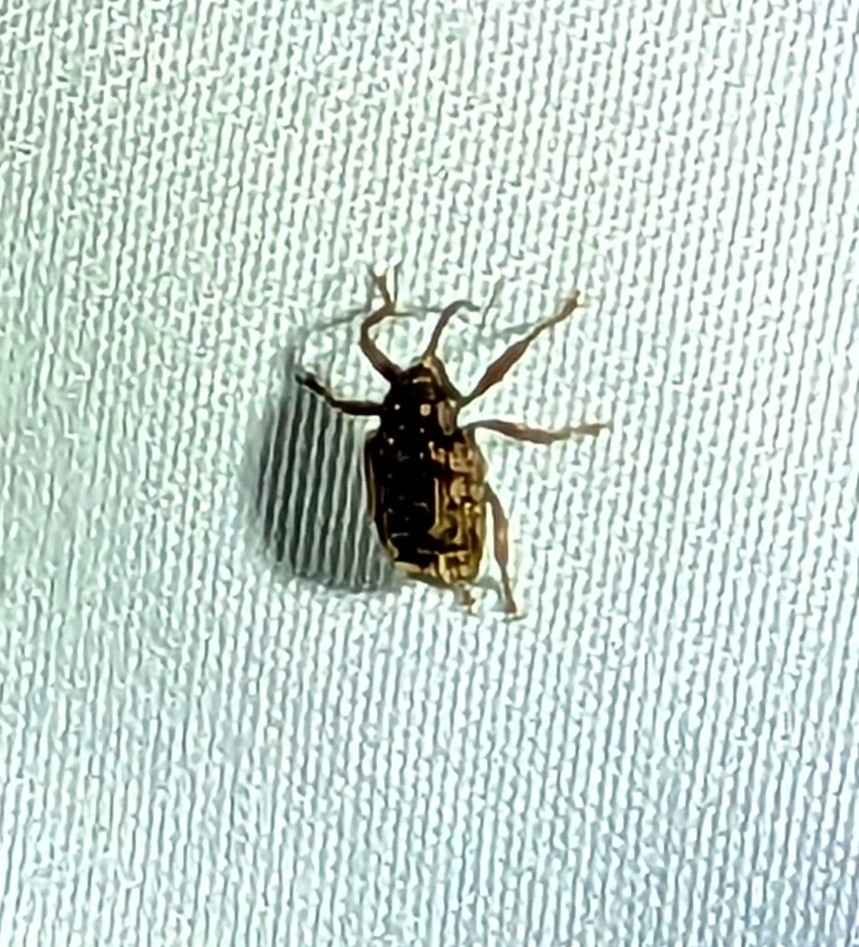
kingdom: Animalia
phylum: Arthropoda
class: Insecta
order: Coleoptera
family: Curculionidae
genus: Conotrachelus
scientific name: Conotrachelus naso
